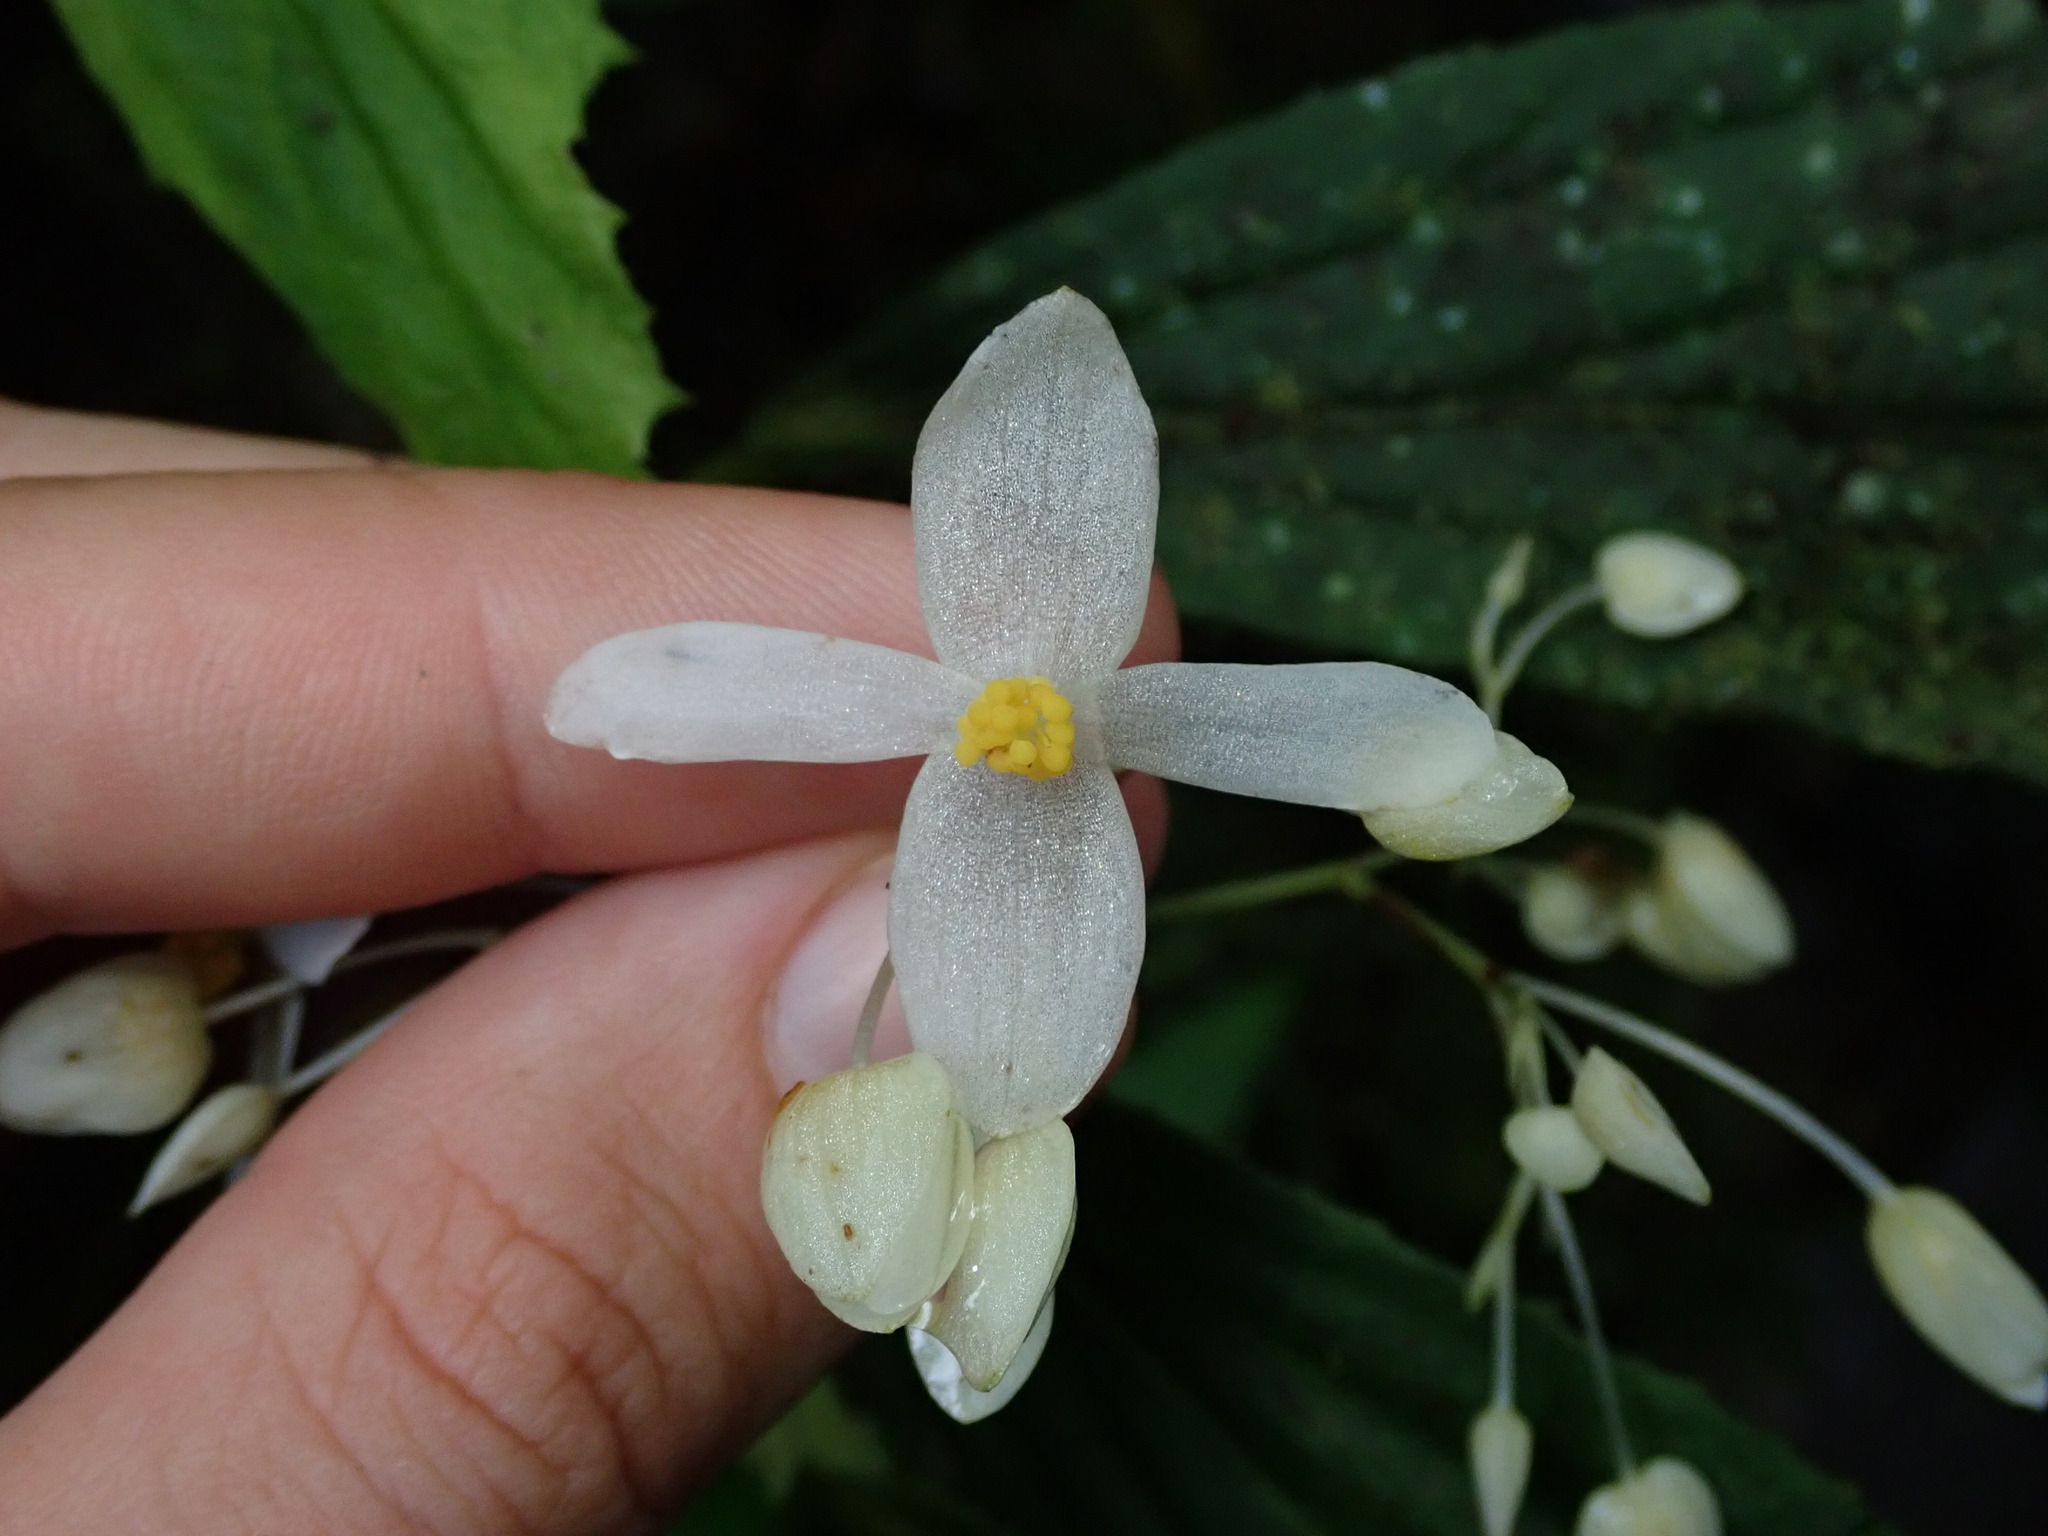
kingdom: Plantae
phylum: Tracheophyta
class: Magnoliopsida
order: Cucurbitales
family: Begoniaceae
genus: Begonia
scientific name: Begonia maynensis
